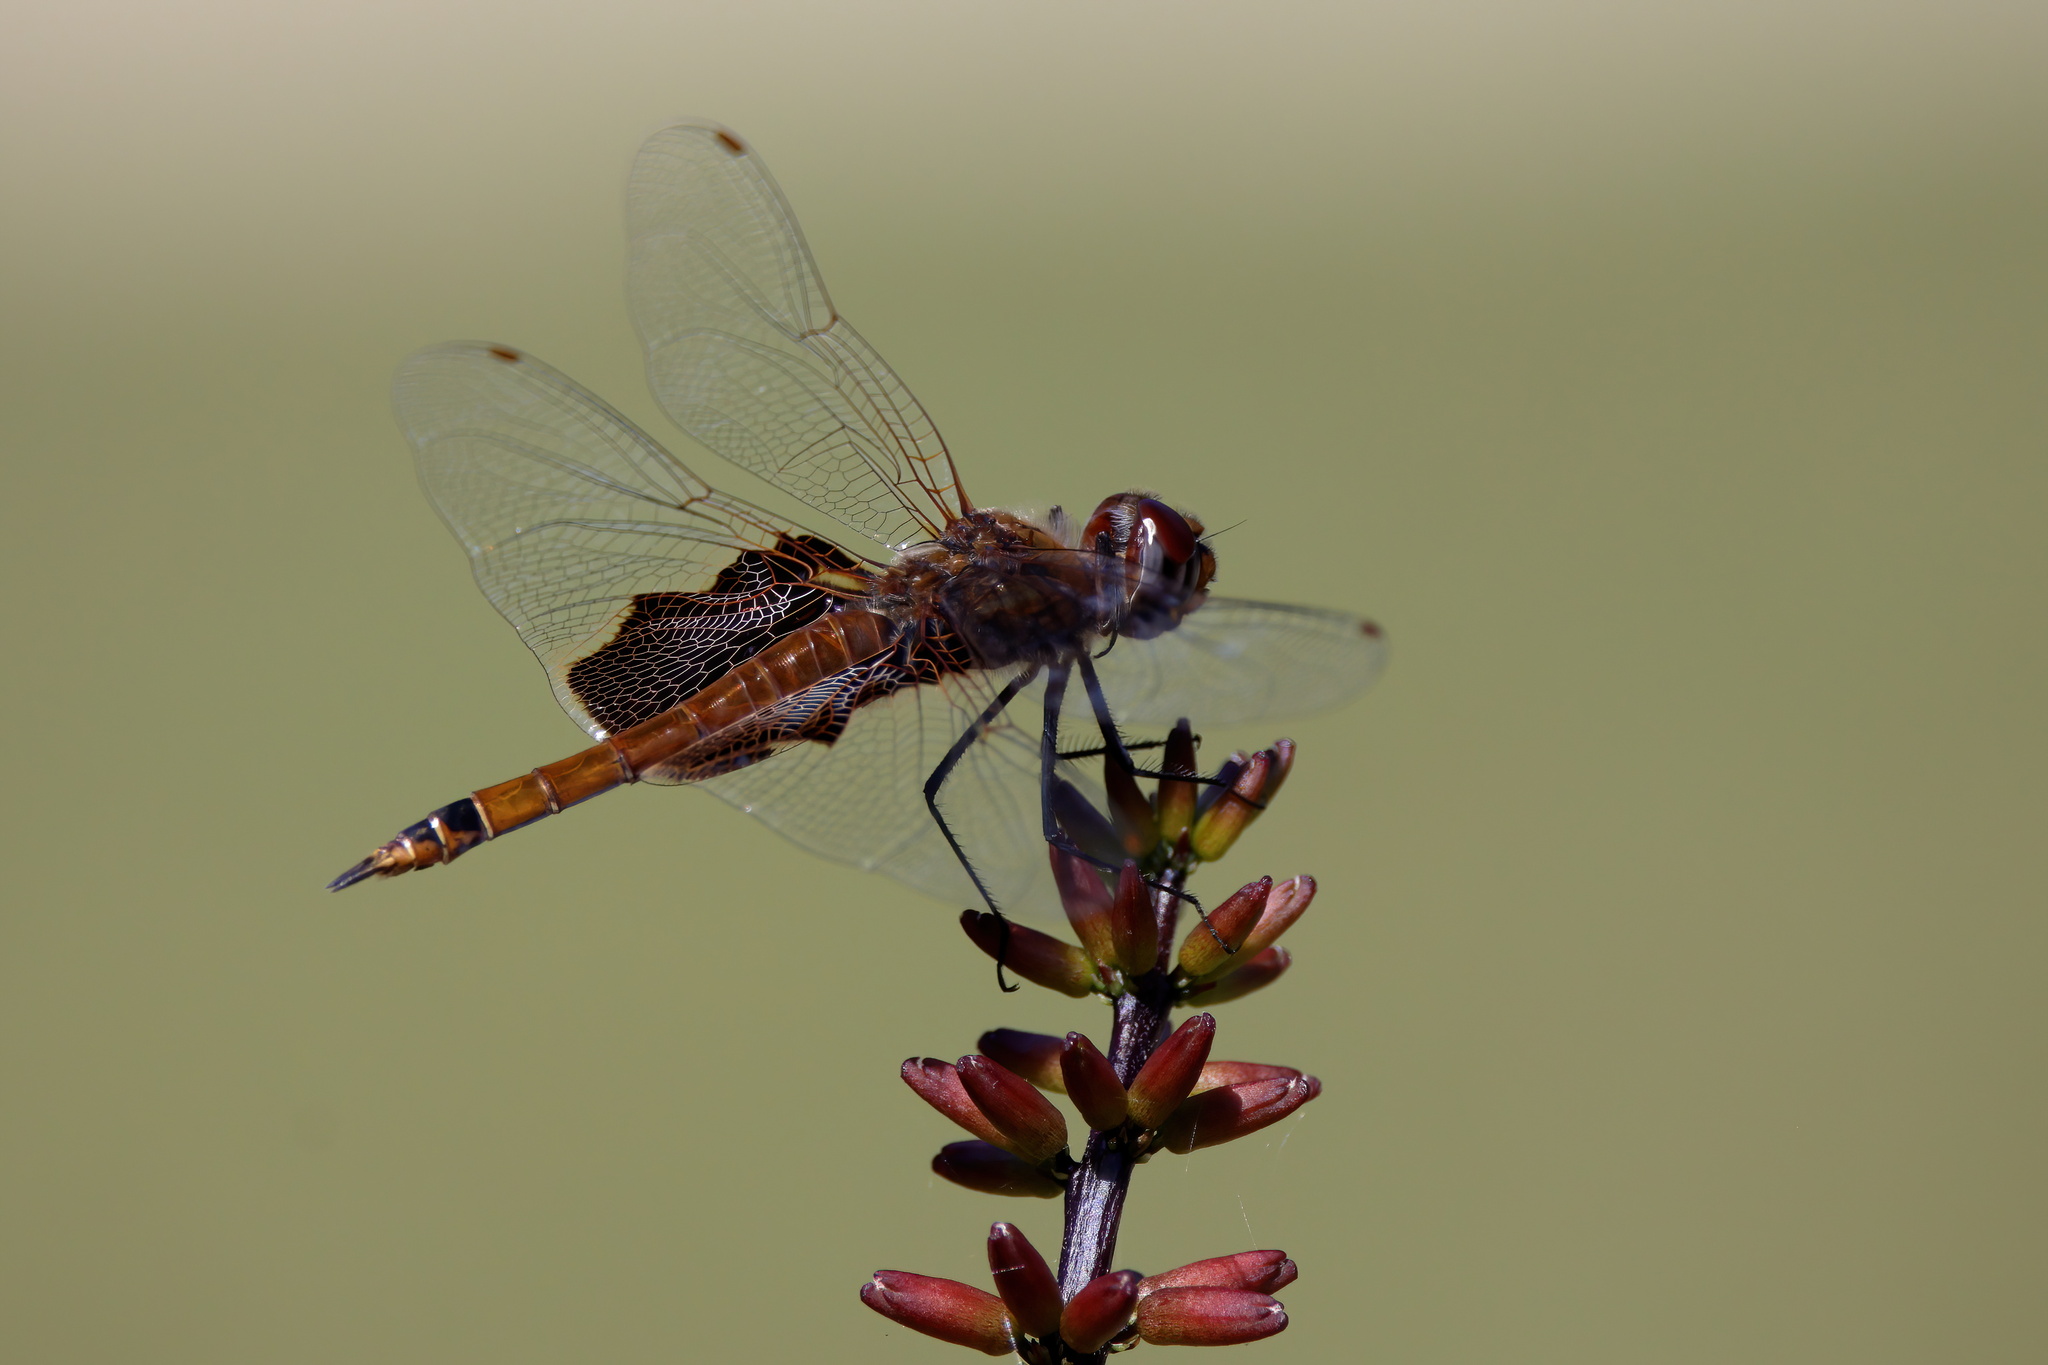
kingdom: Animalia
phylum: Arthropoda
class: Insecta
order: Odonata
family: Libellulidae
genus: Tramea
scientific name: Tramea carolina
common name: Carolina saddlebags
